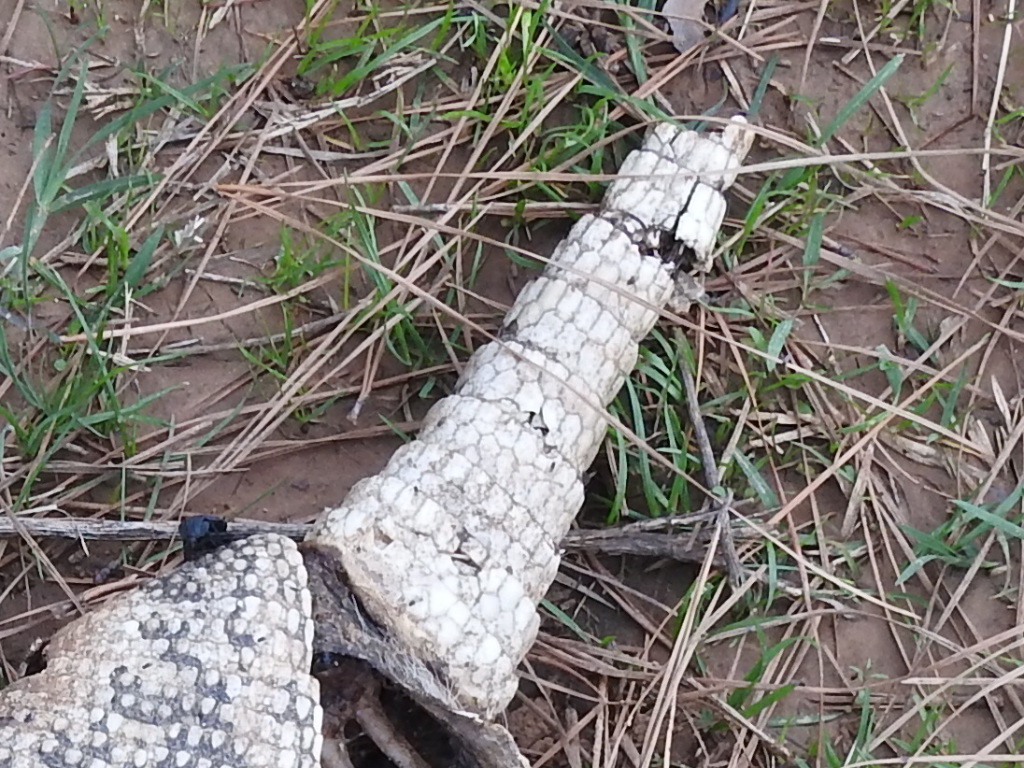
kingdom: Animalia
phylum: Chordata
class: Mammalia
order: Cingulata
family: Dasypodidae
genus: Dasypus
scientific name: Dasypus novemcinctus
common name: Nine-banded armadillo
